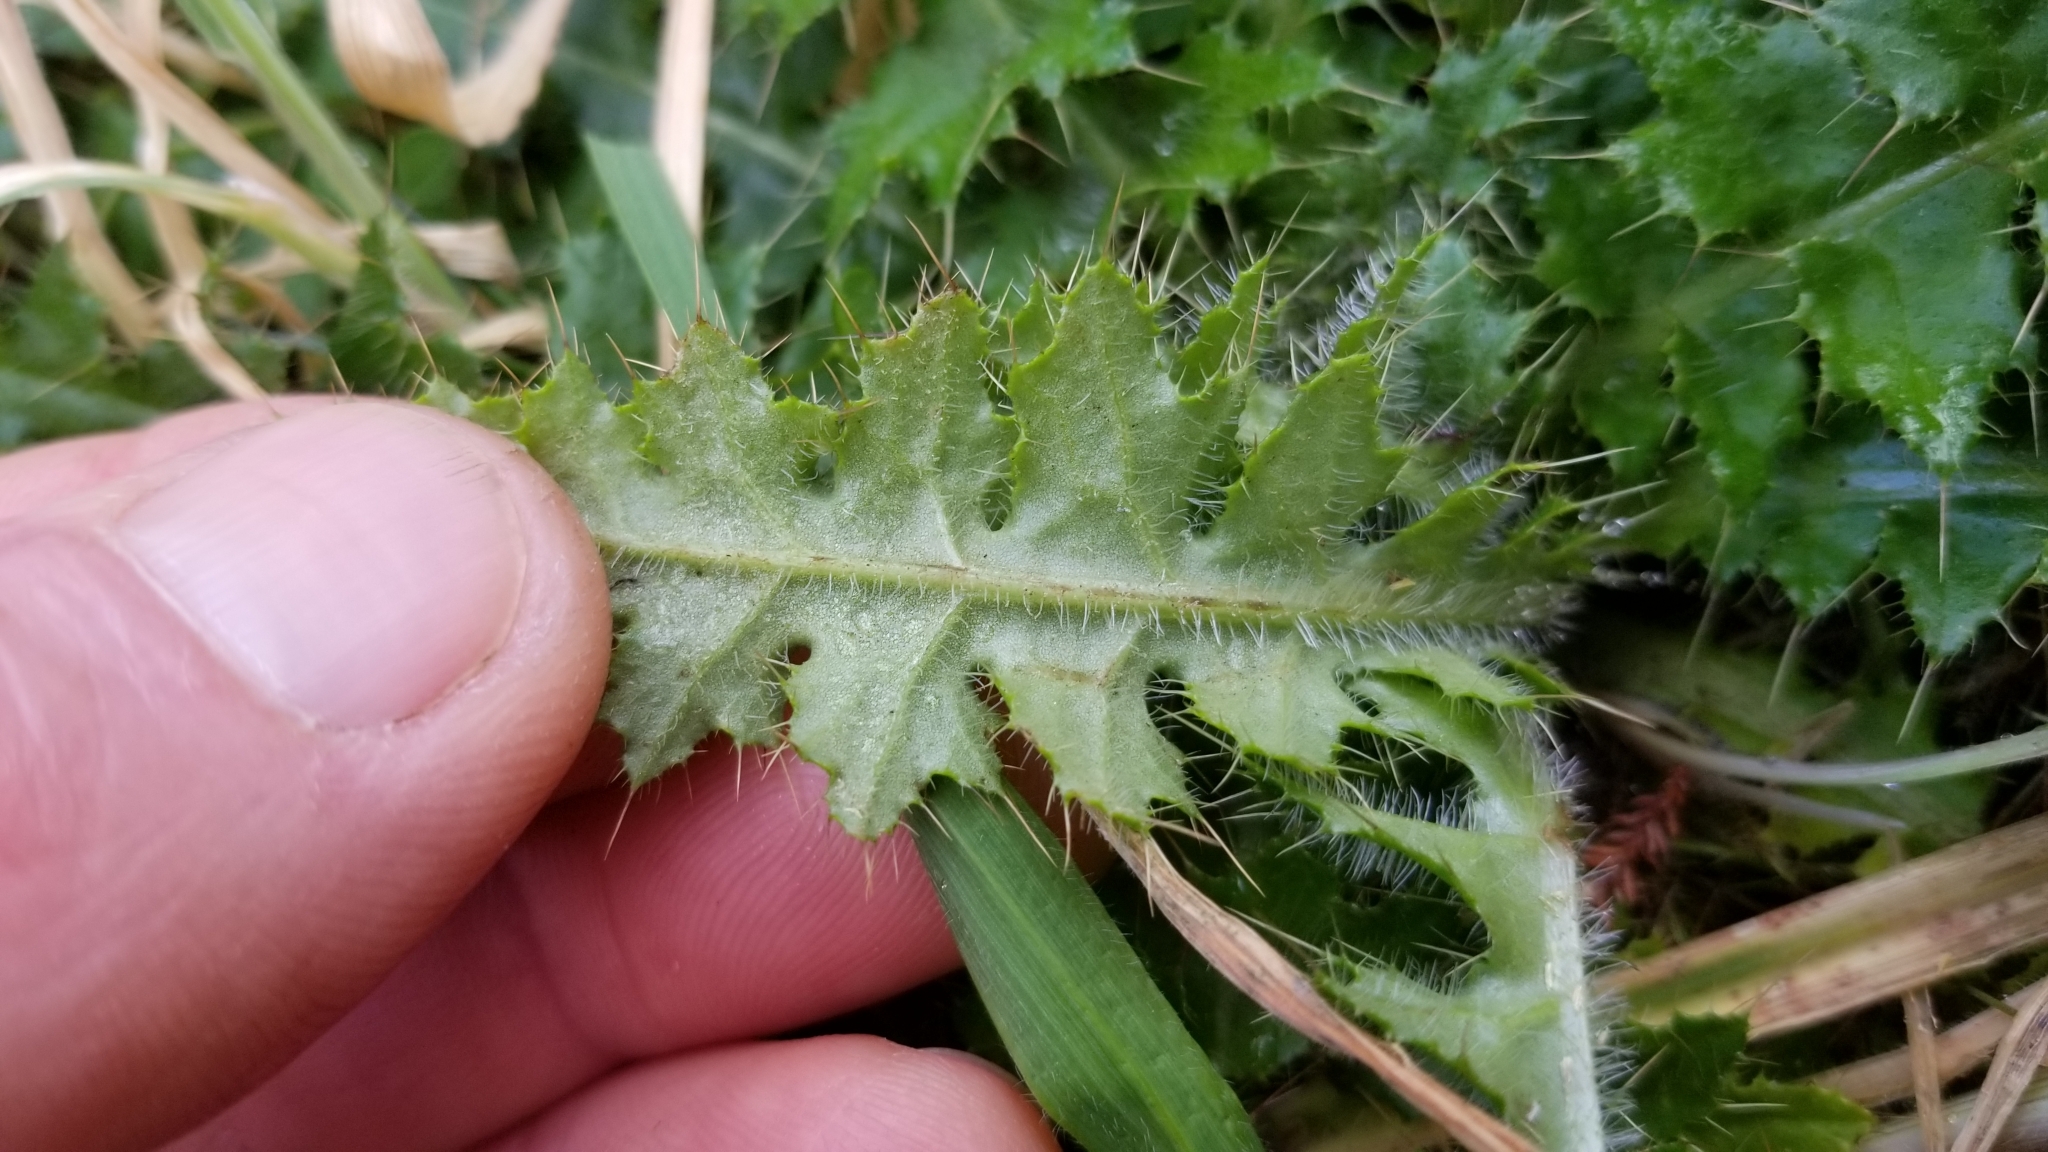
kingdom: Plantae
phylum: Tracheophyta
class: Magnoliopsida
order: Asterales
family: Asteraceae
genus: Cirsium
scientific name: Cirsium arvense
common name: Creeping thistle
